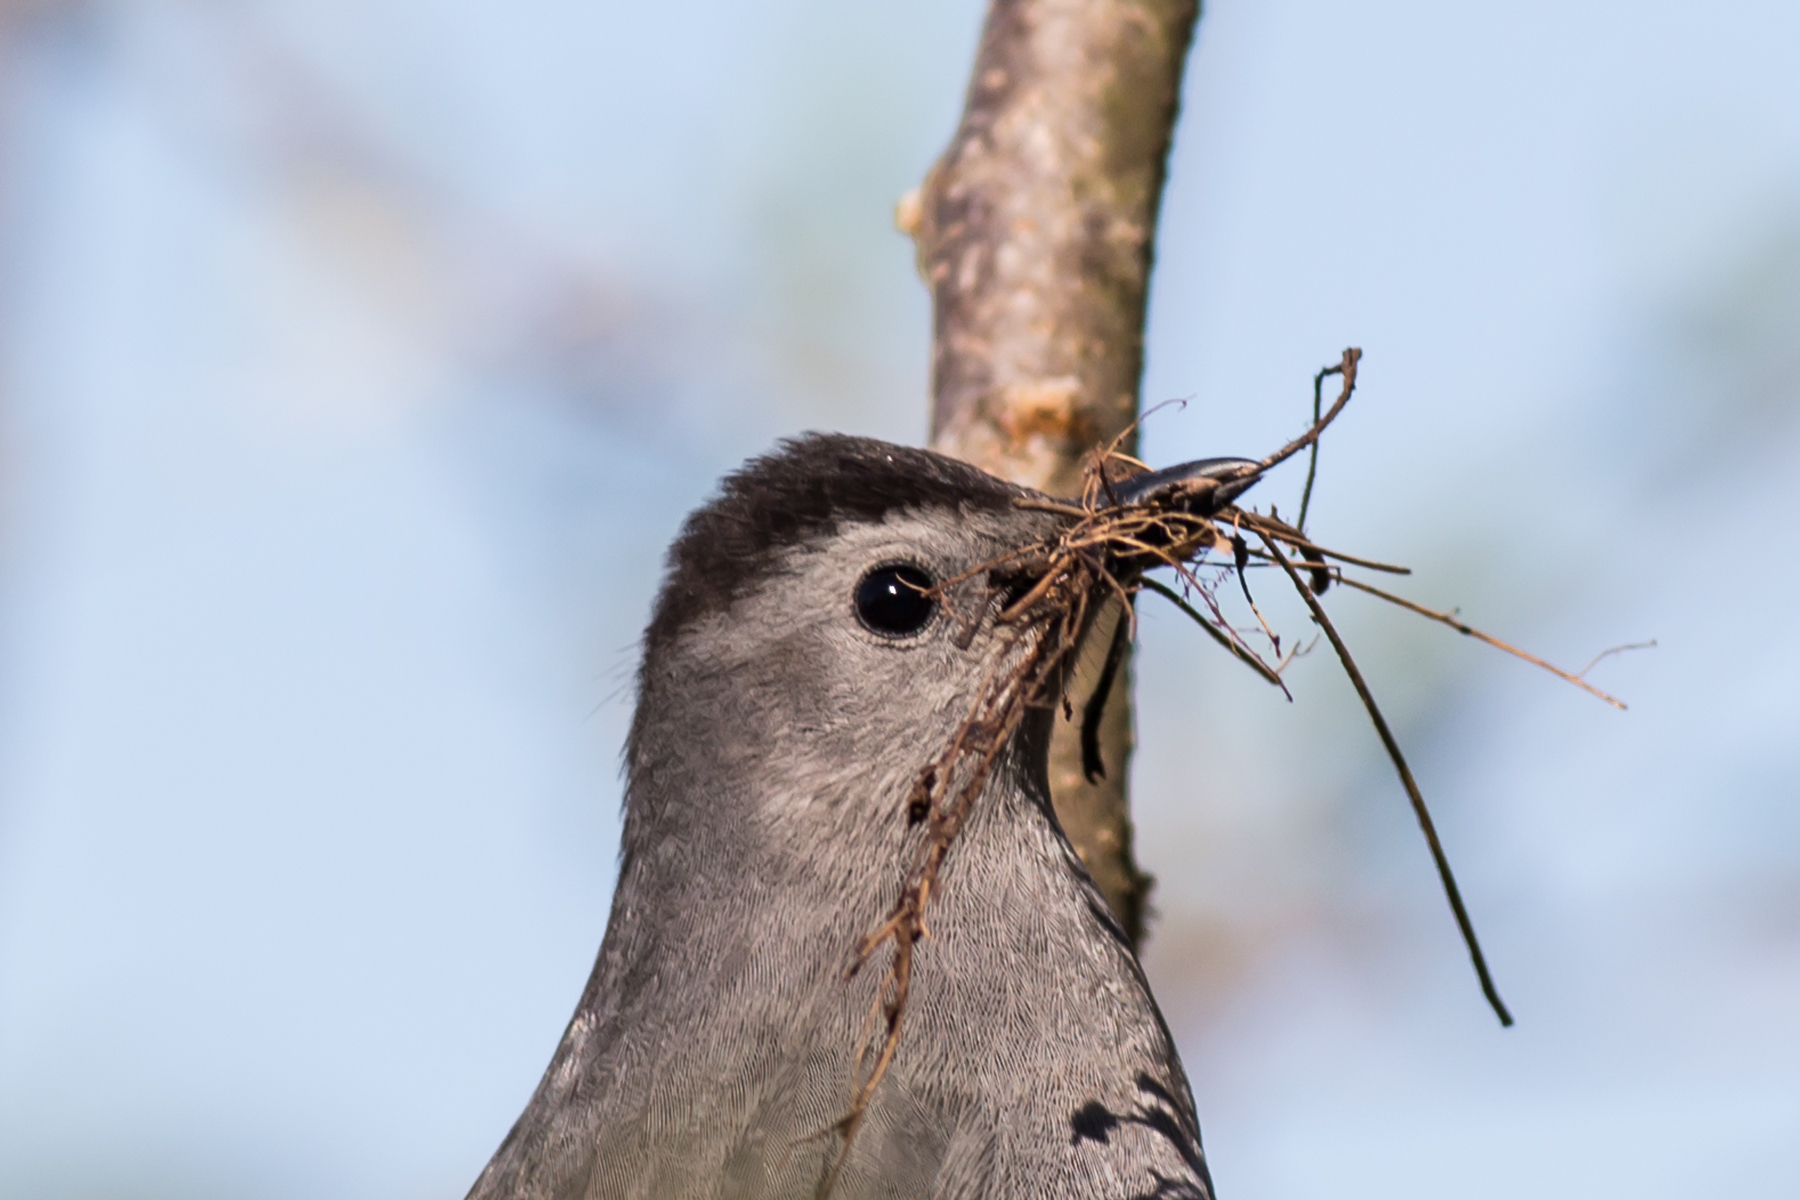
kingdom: Animalia
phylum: Chordata
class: Aves
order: Passeriformes
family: Mimidae
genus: Dumetella
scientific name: Dumetella carolinensis
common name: Gray catbird
